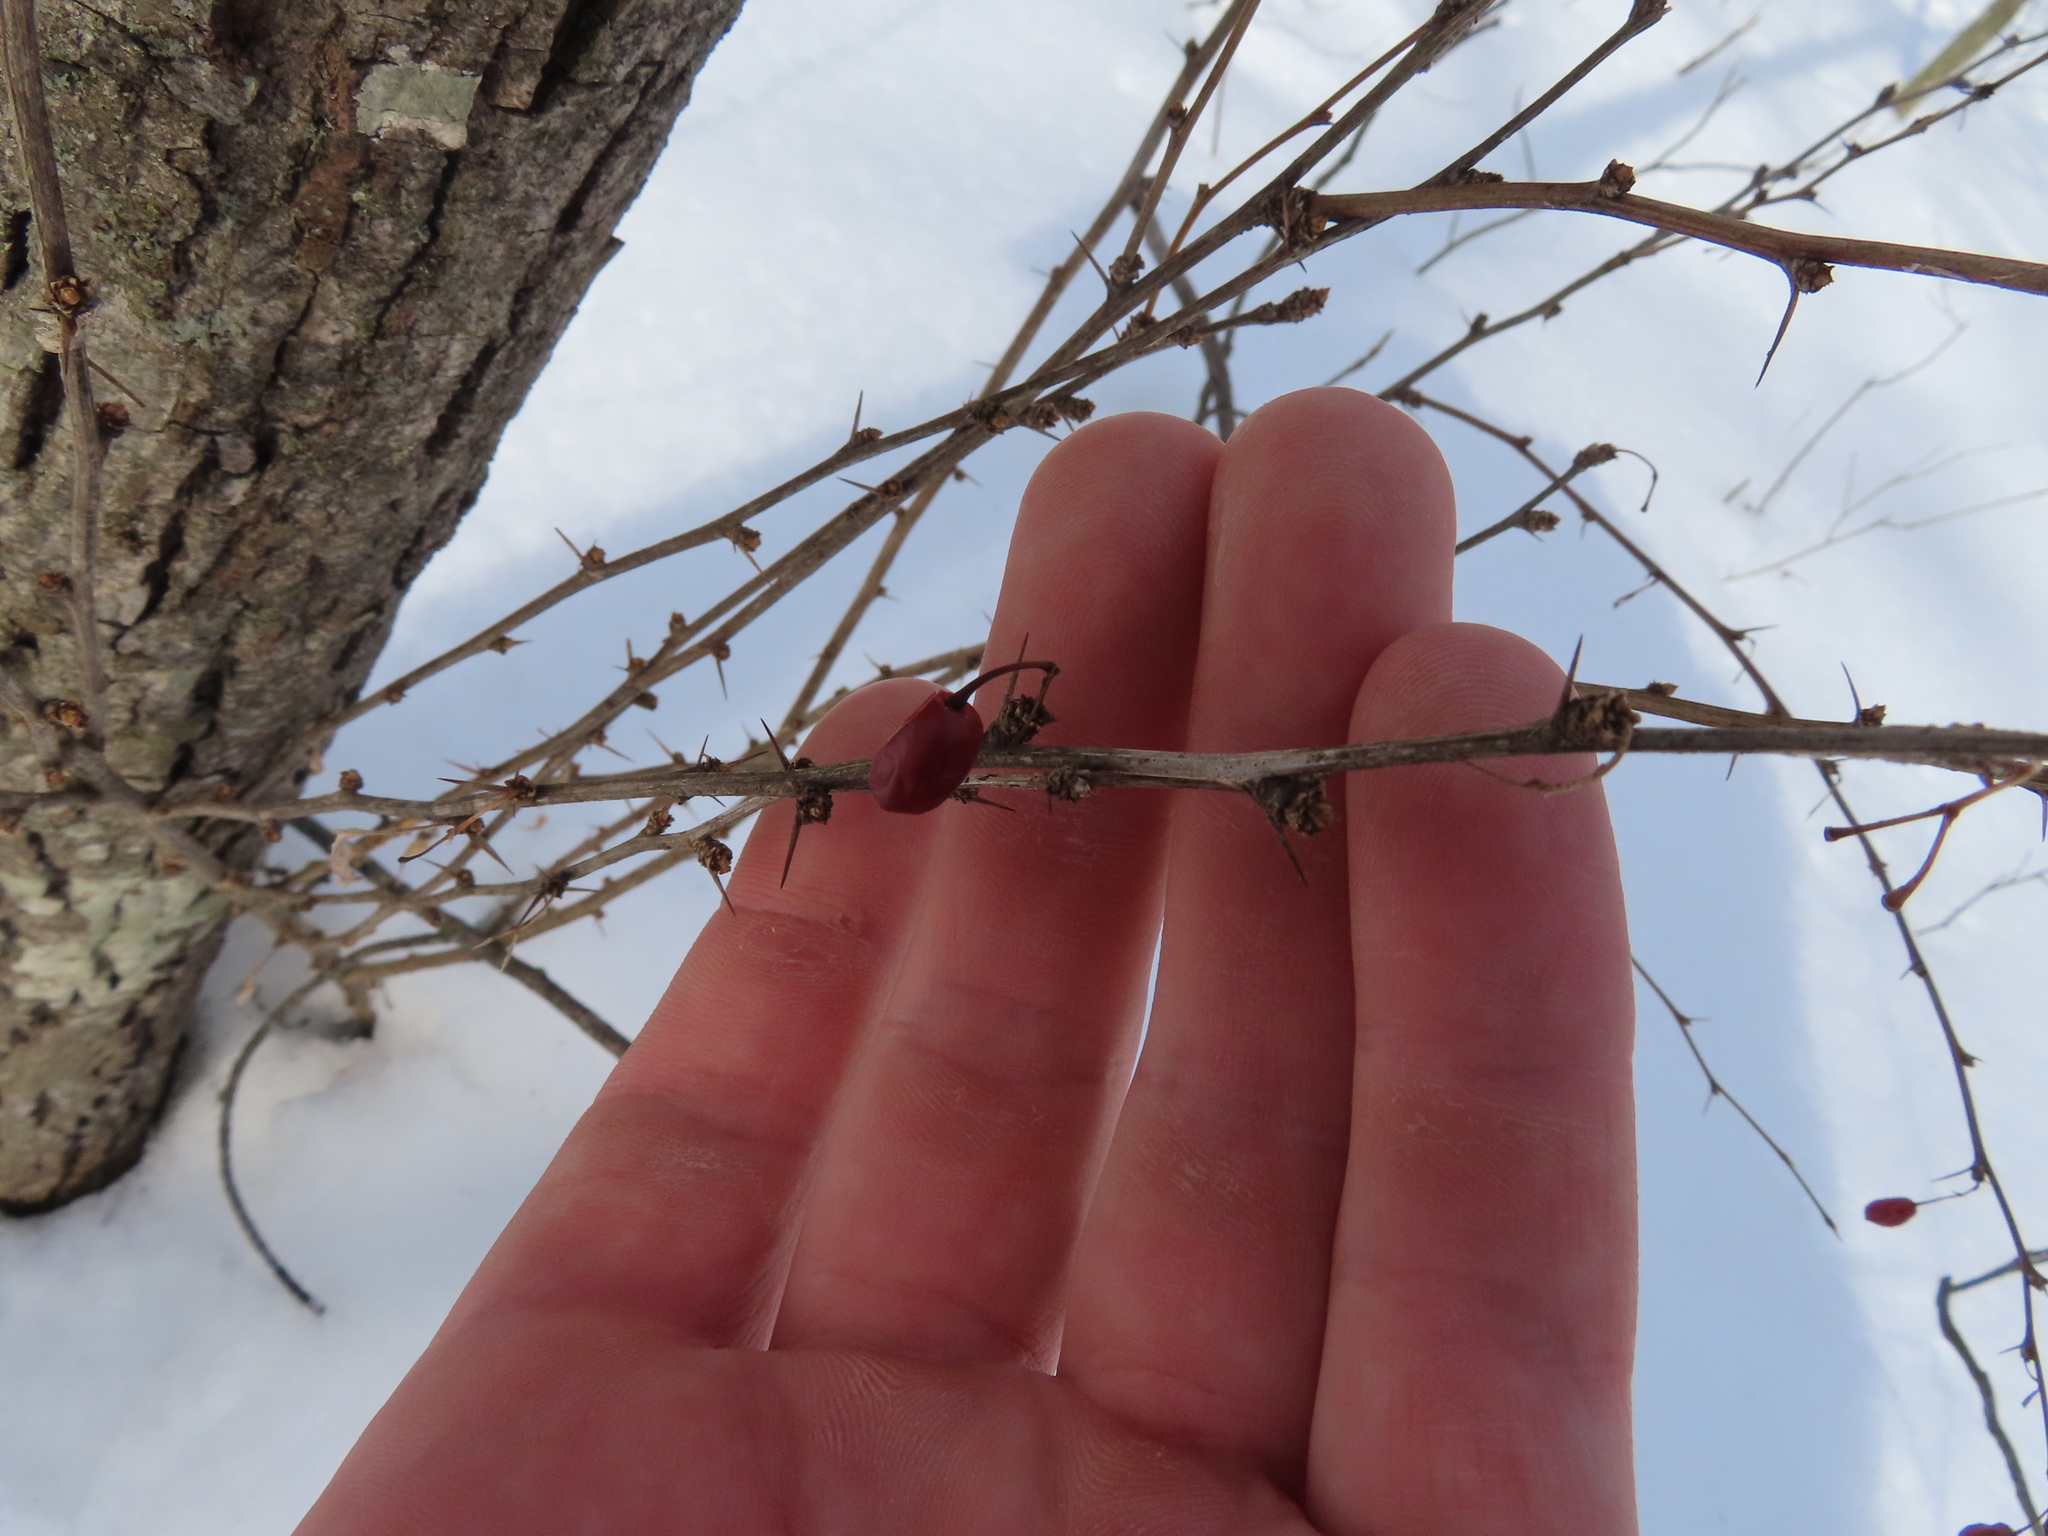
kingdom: Plantae
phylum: Tracheophyta
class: Magnoliopsida
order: Ranunculales
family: Berberidaceae
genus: Berberis
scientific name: Berberis thunbergii
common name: Japanese barberry
